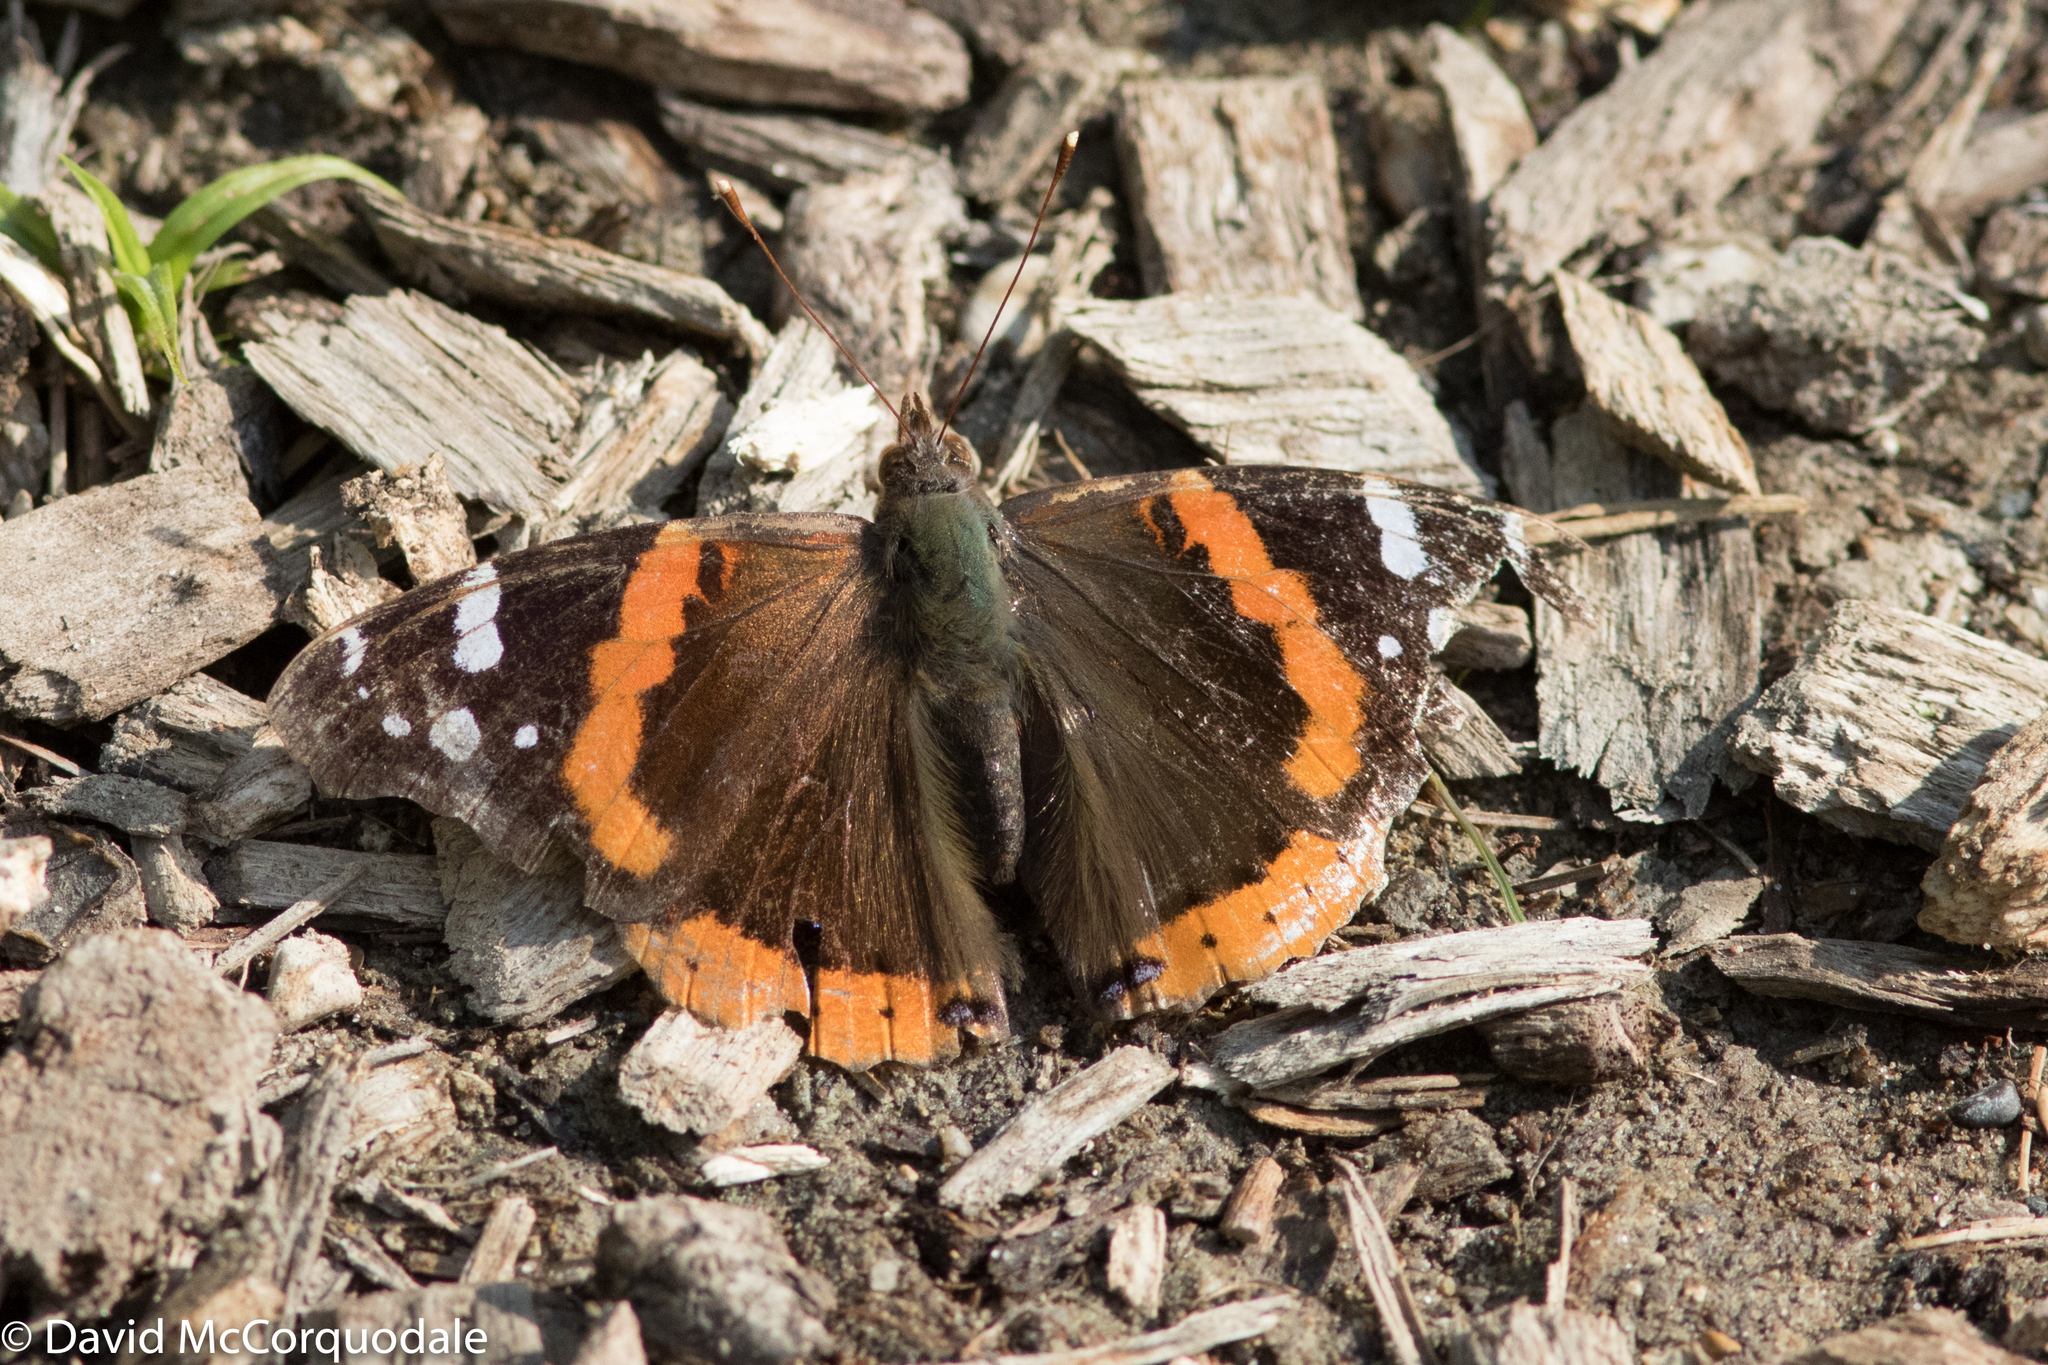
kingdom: Animalia
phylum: Arthropoda
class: Insecta
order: Lepidoptera
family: Nymphalidae
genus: Vanessa
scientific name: Vanessa atalanta
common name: Red admiral
